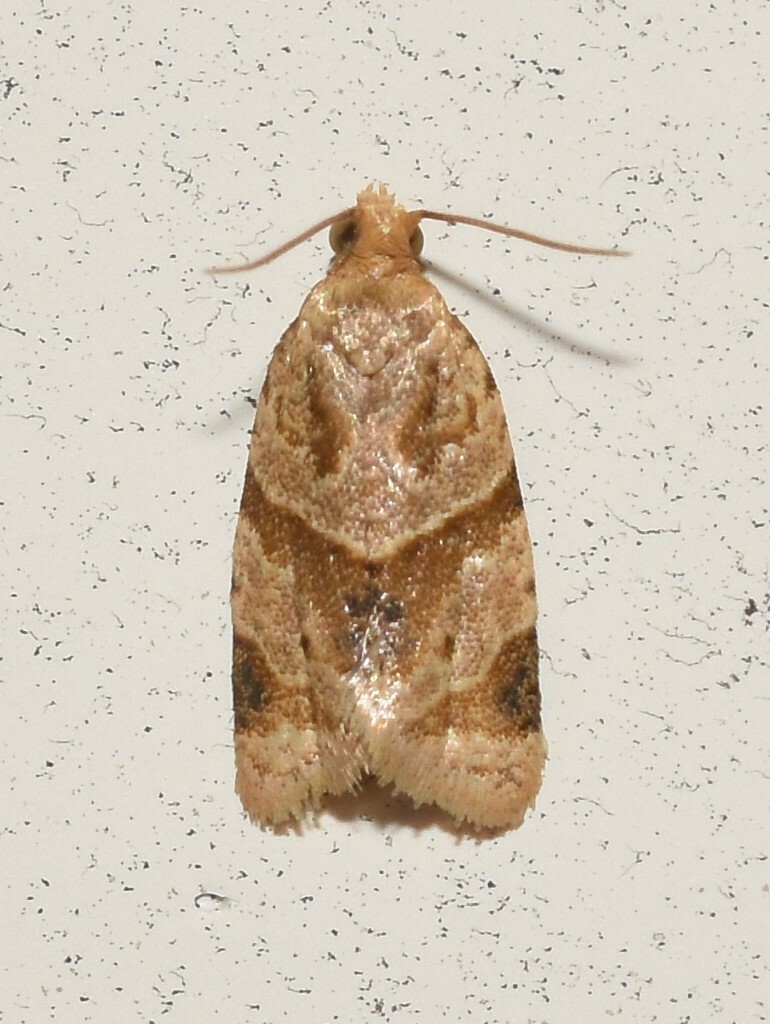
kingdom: Animalia
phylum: Arthropoda
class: Insecta
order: Lepidoptera
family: Tortricidae
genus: Clepsis
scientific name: Clepsis peritana
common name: Garden tortrix
